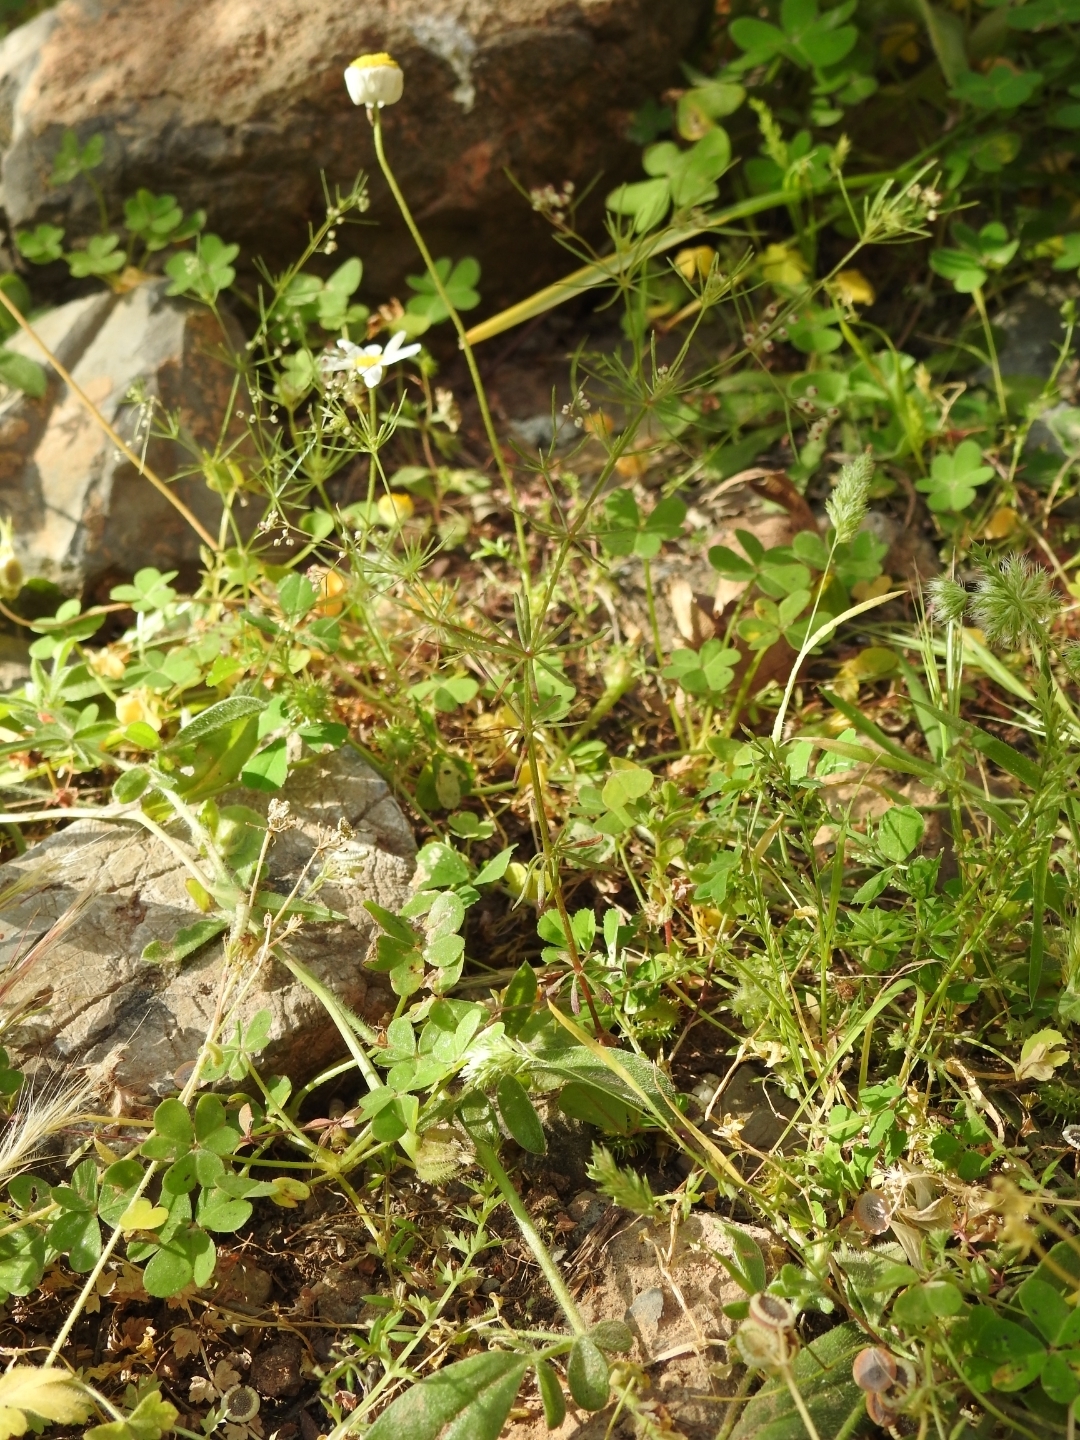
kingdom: Plantae
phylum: Tracheophyta
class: Magnoliopsida
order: Gentianales
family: Rubiaceae
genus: Galium
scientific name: Galium setaceum
